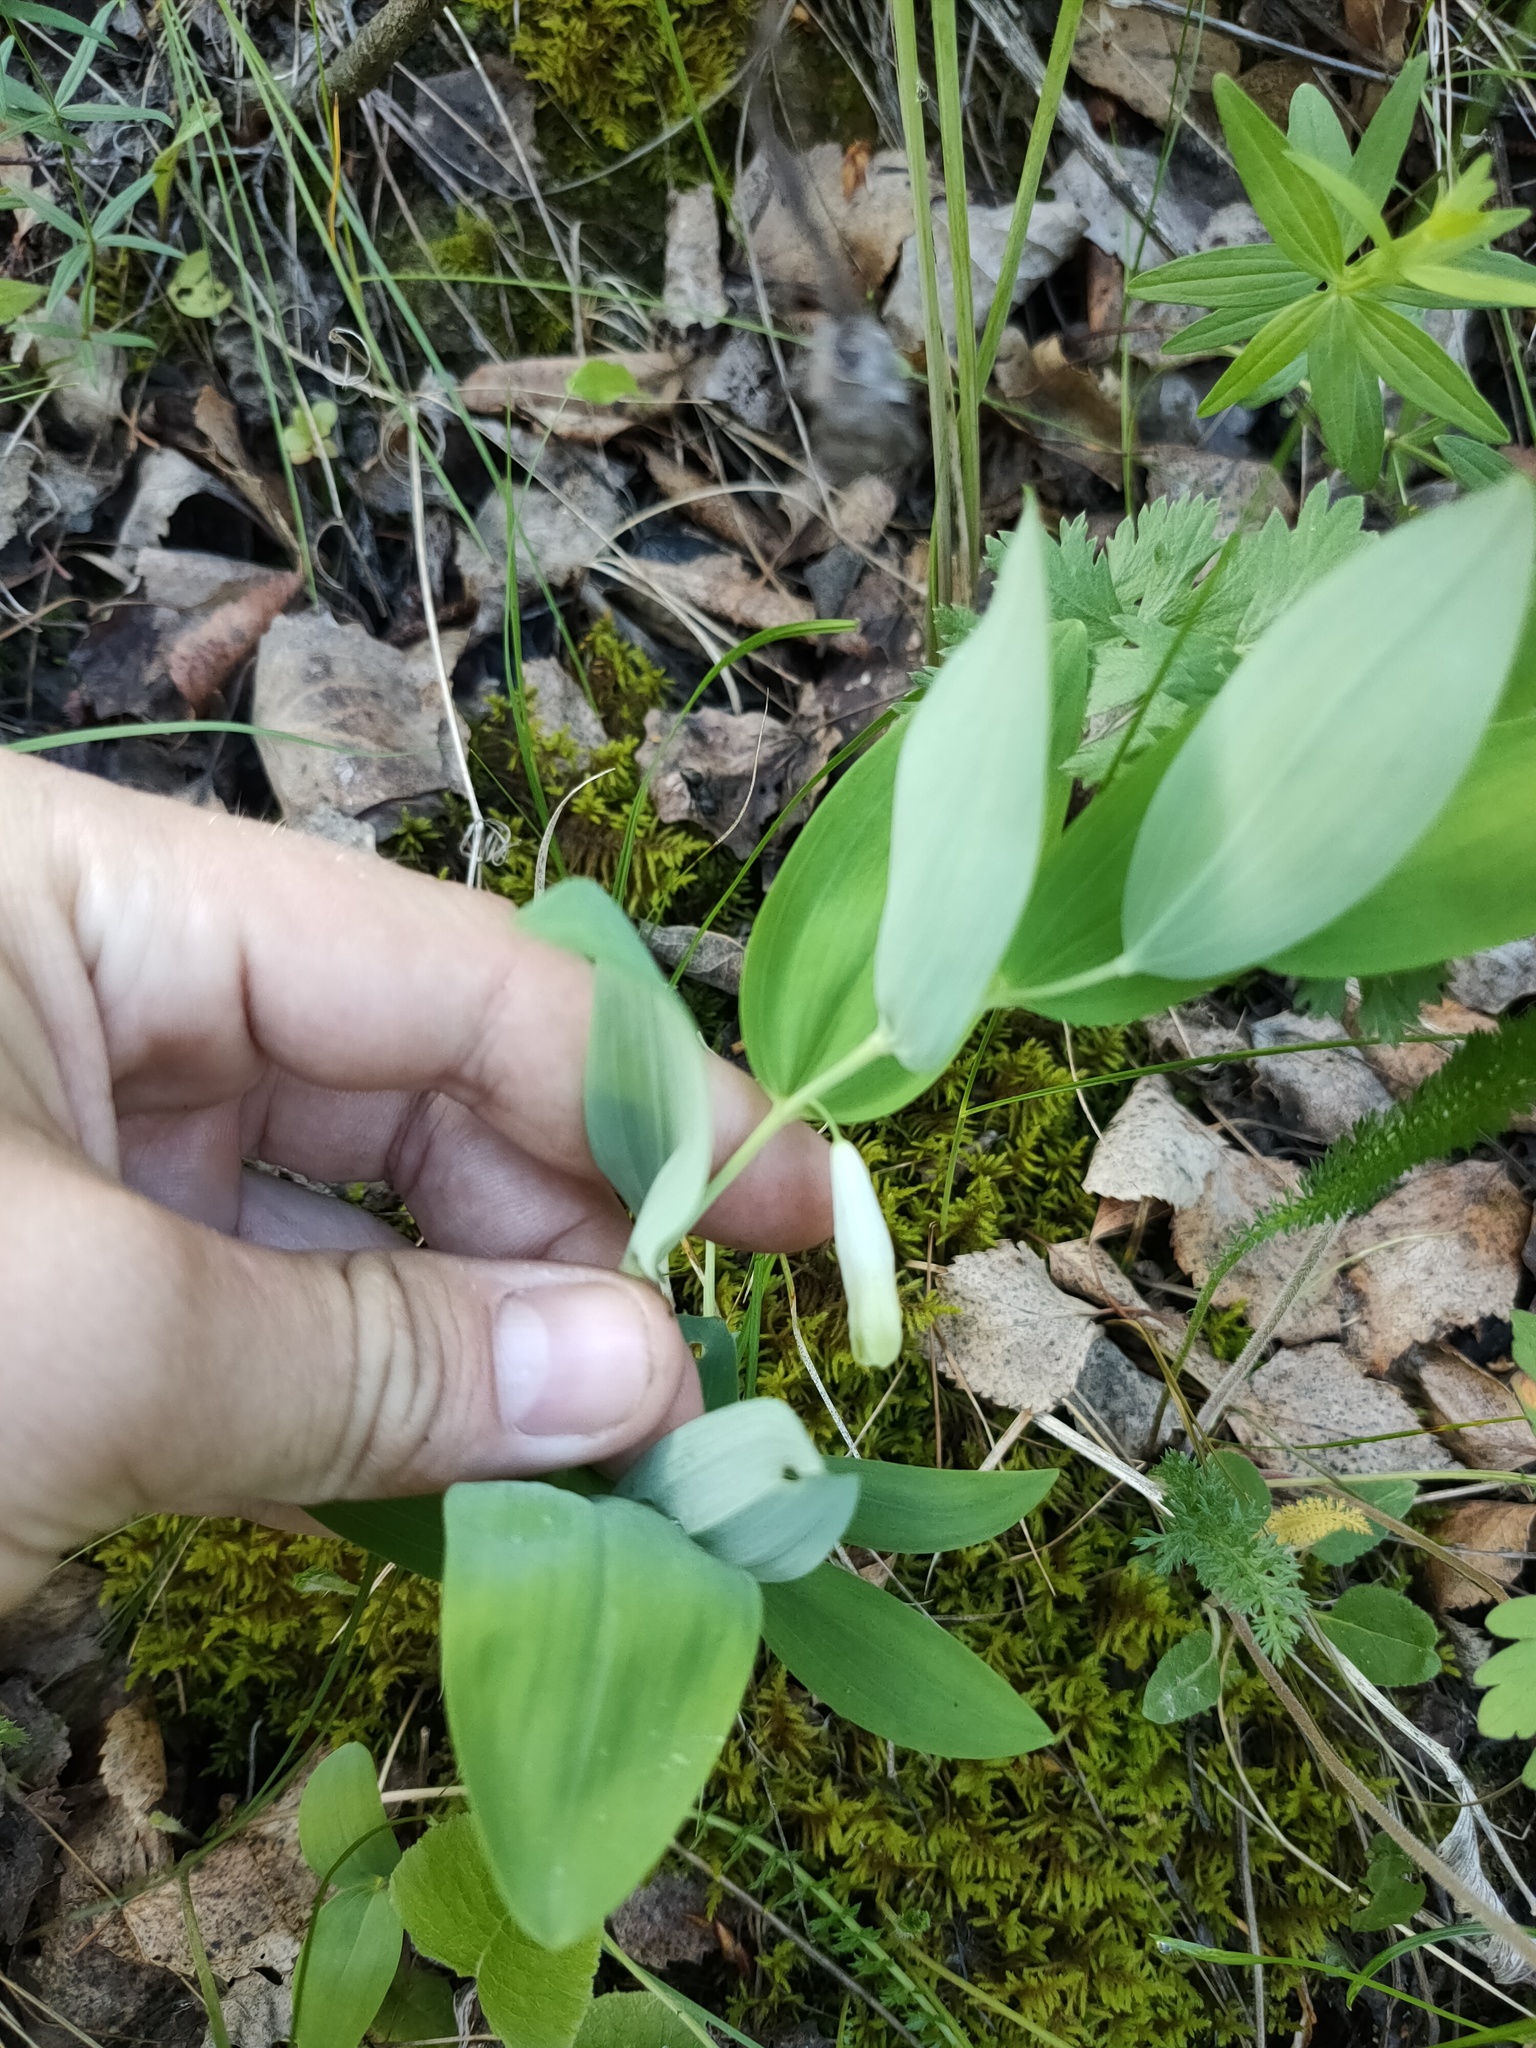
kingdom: Plantae
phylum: Tracheophyta
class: Liliopsida
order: Asparagales
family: Asparagaceae
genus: Polygonatum
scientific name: Polygonatum odoratum
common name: Angular solomon's-seal
